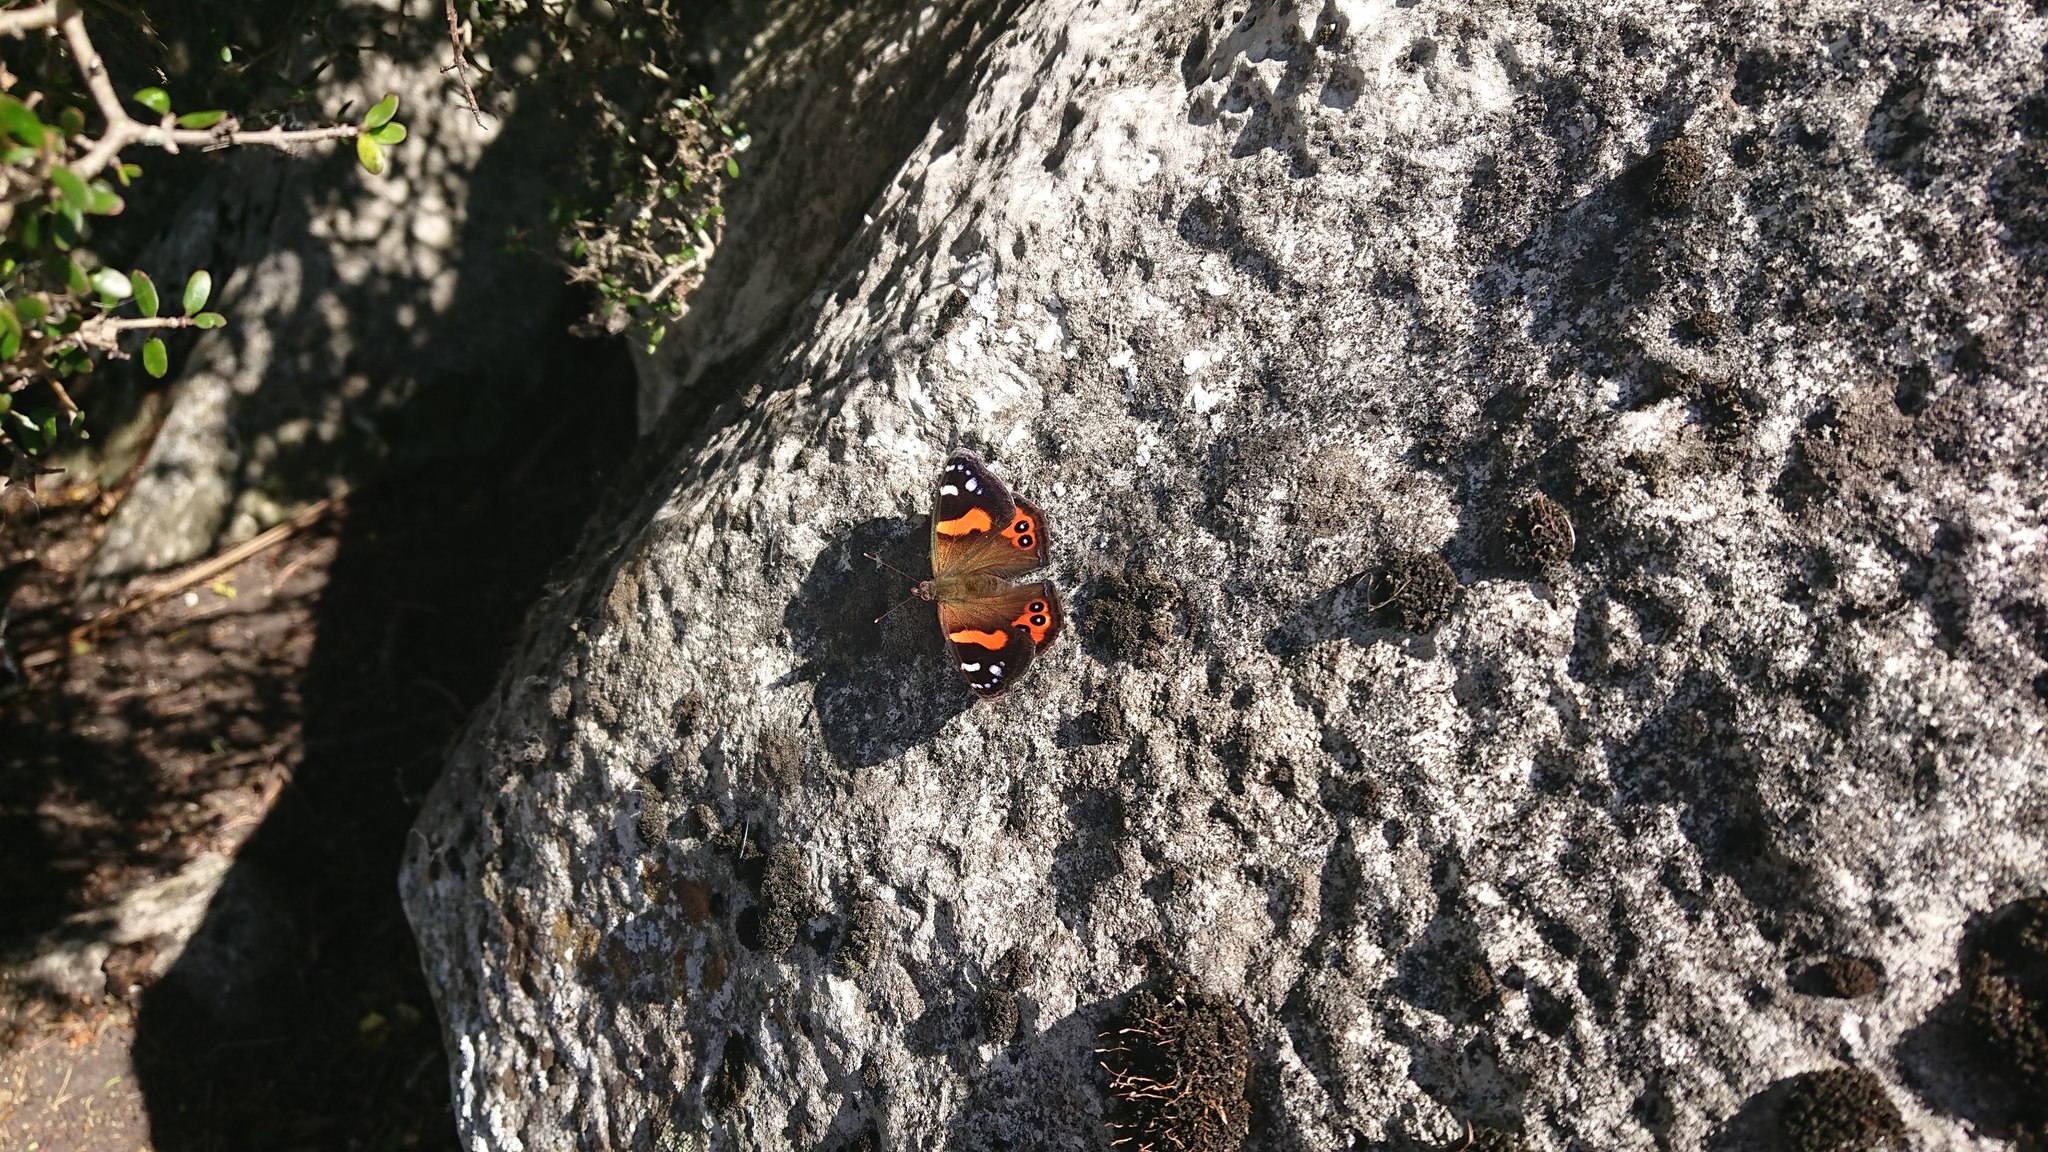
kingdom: Animalia
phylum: Arthropoda
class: Insecta
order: Lepidoptera
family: Nymphalidae
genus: Vanessa
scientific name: Vanessa gonerilla
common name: New zealand red admiral
